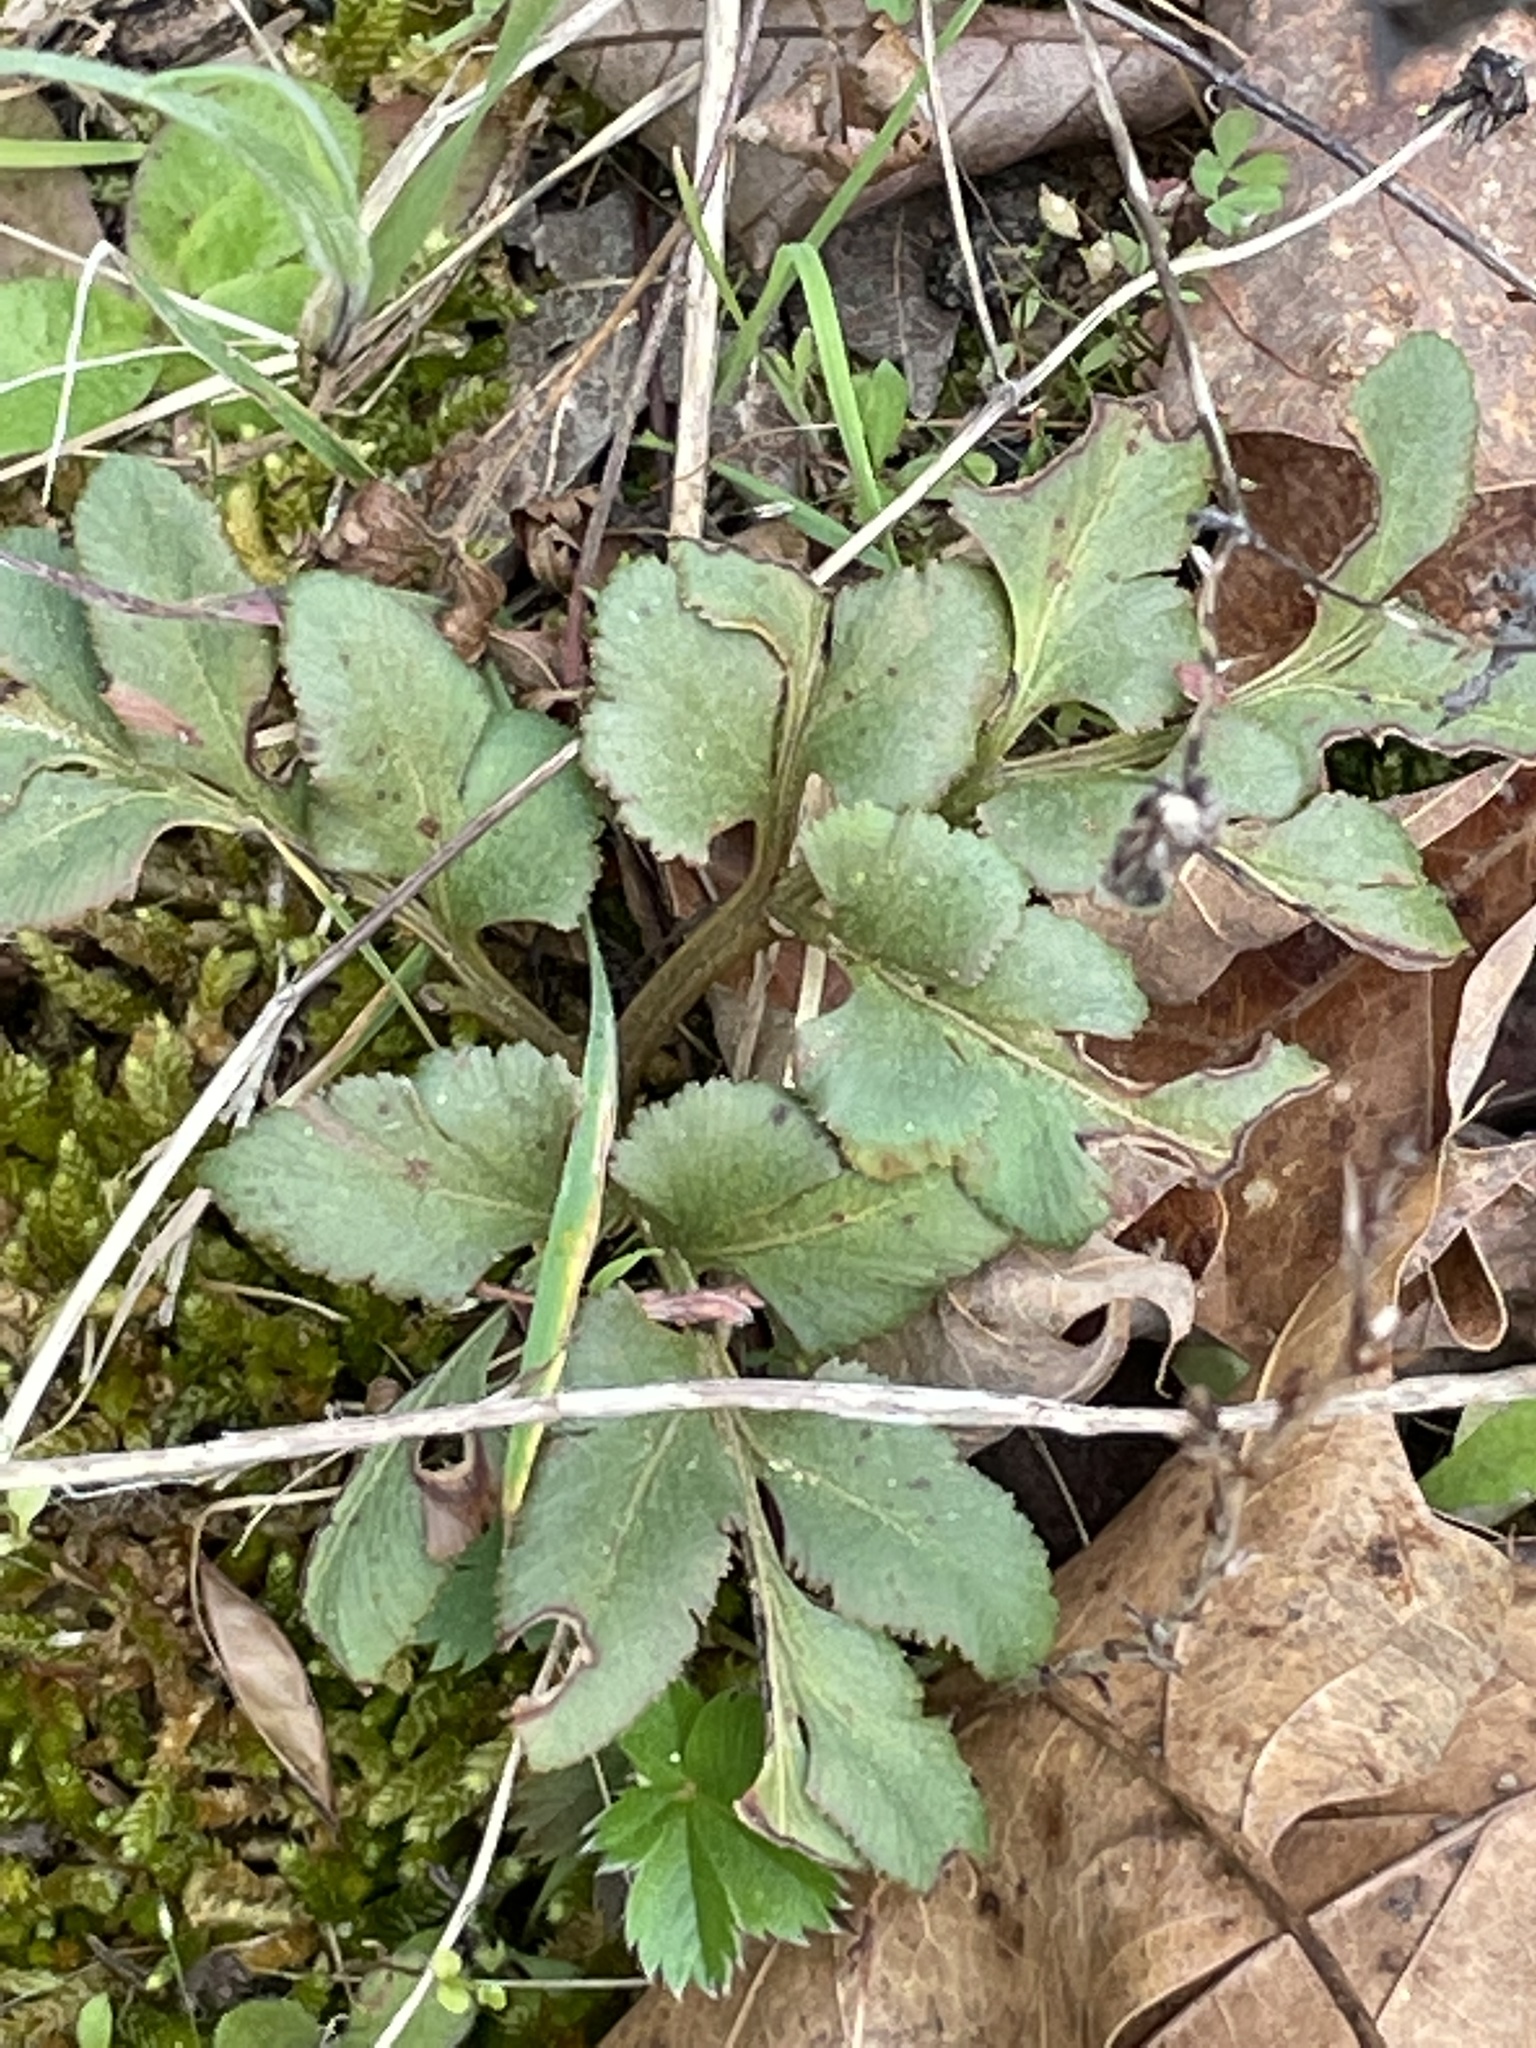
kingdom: Plantae
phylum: Tracheophyta
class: Polypodiopsida
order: Ophioglossales
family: Ophioglossaceae
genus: Sceptridium
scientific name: Sceptridium biternatum
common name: Sparse-lobed grapefern
